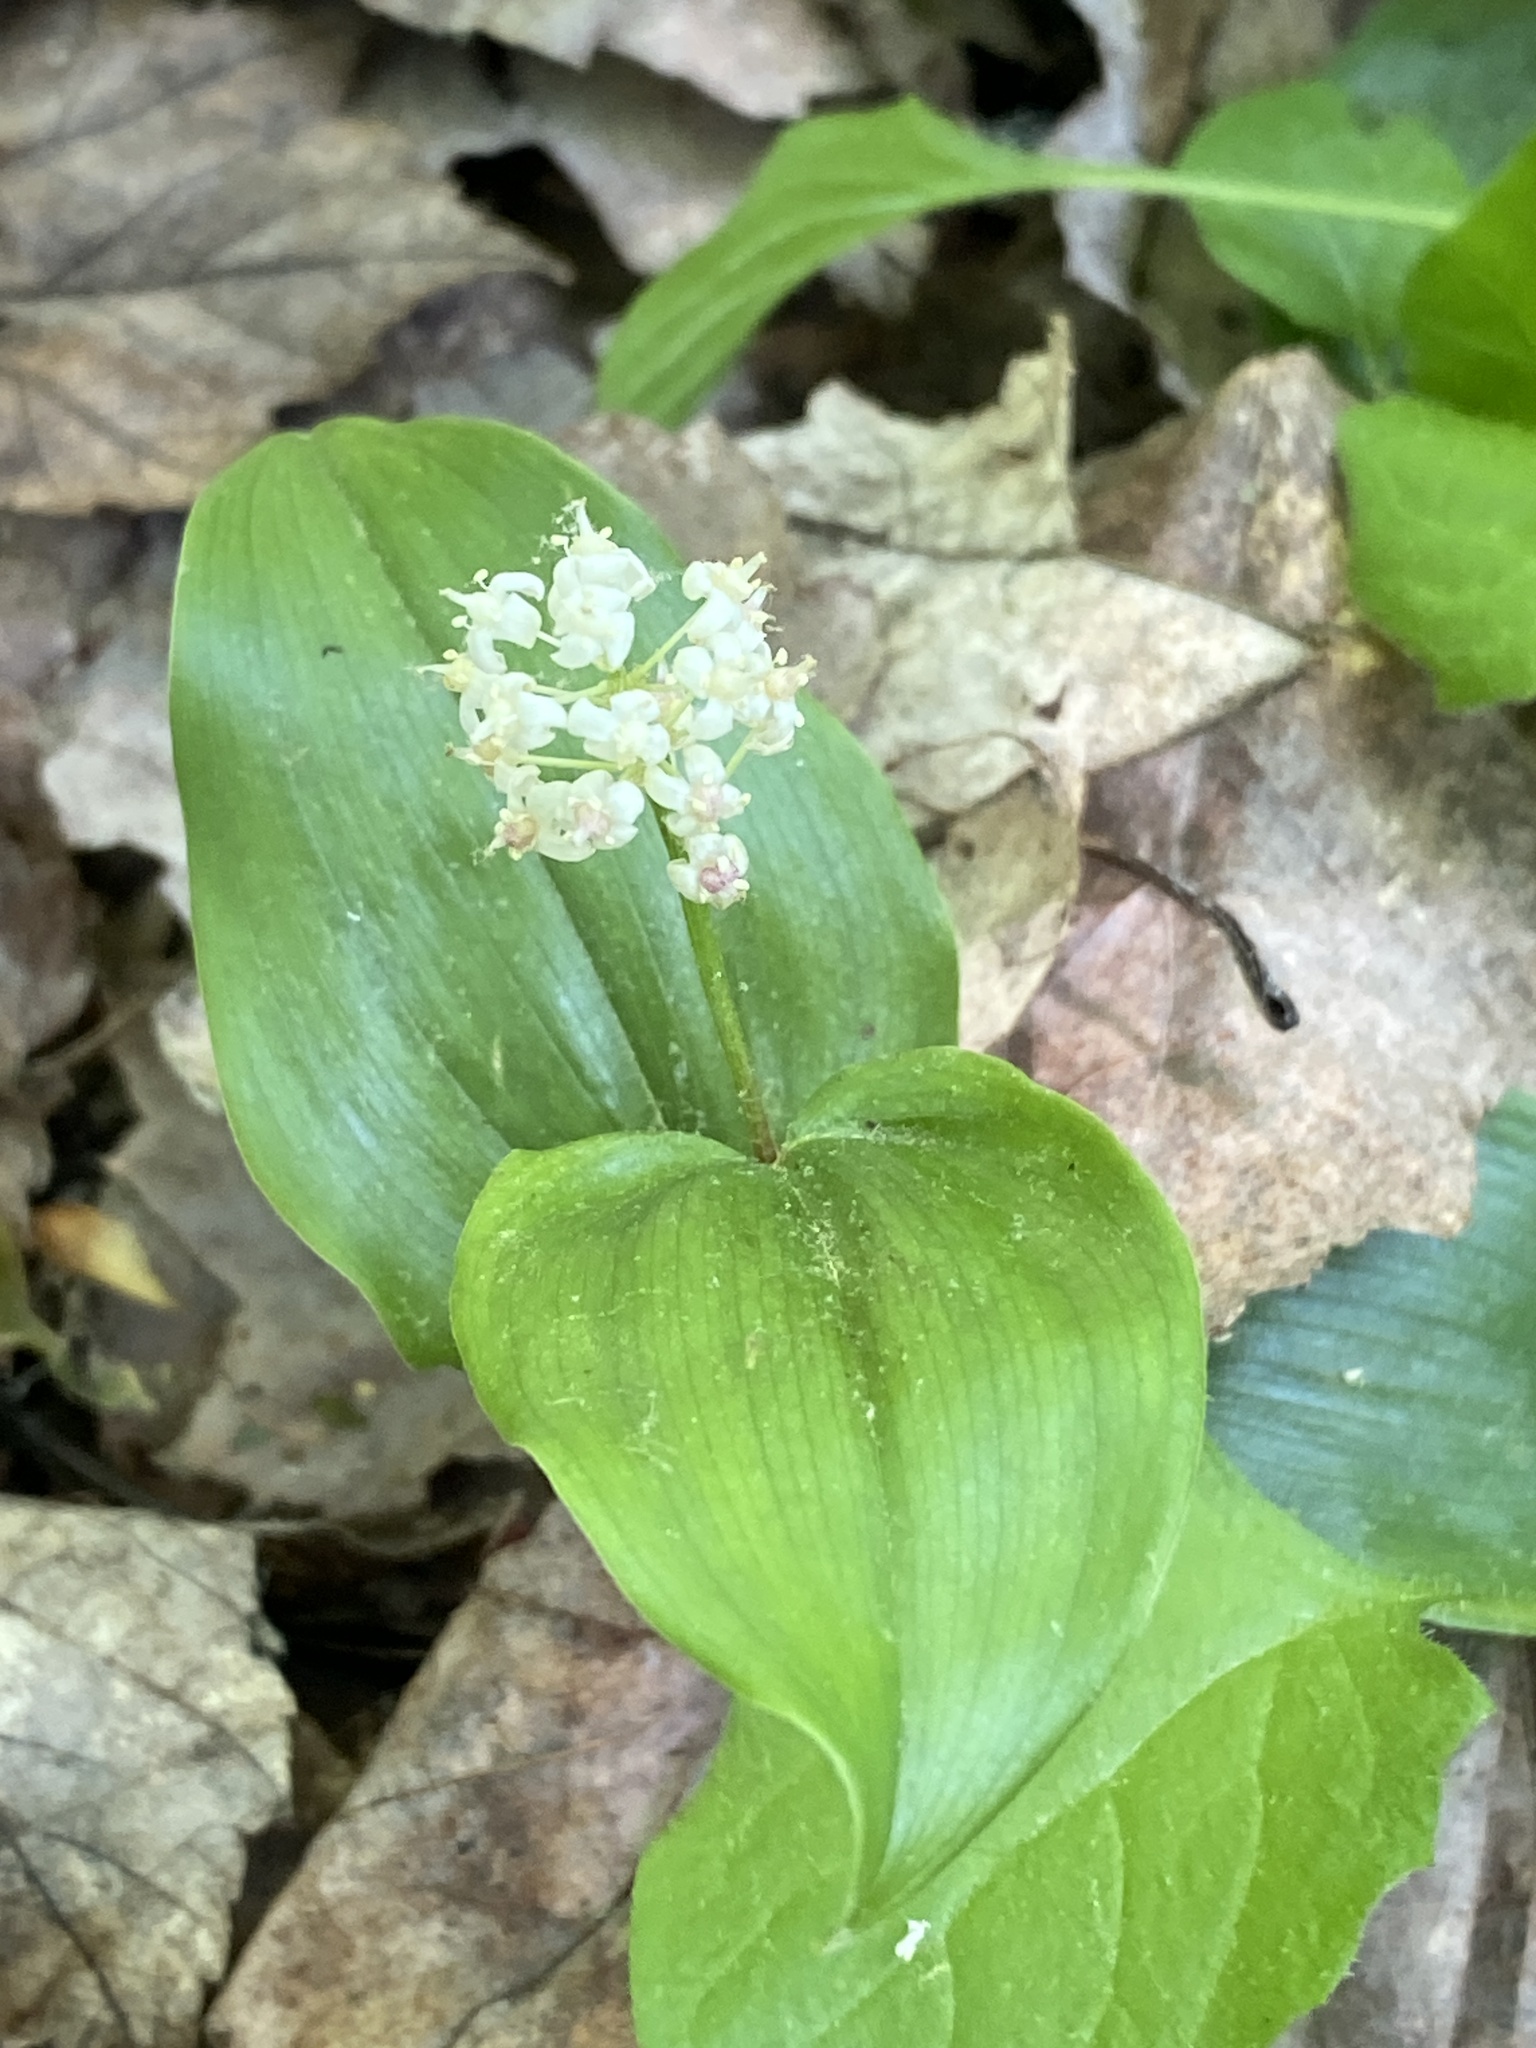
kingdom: Plantae
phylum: Tracheophyta
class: Liliopsida
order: Asparagales
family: Asparagaceae
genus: Maianthemum
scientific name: Maianthemum canadense
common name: False lily-of-the-valley
